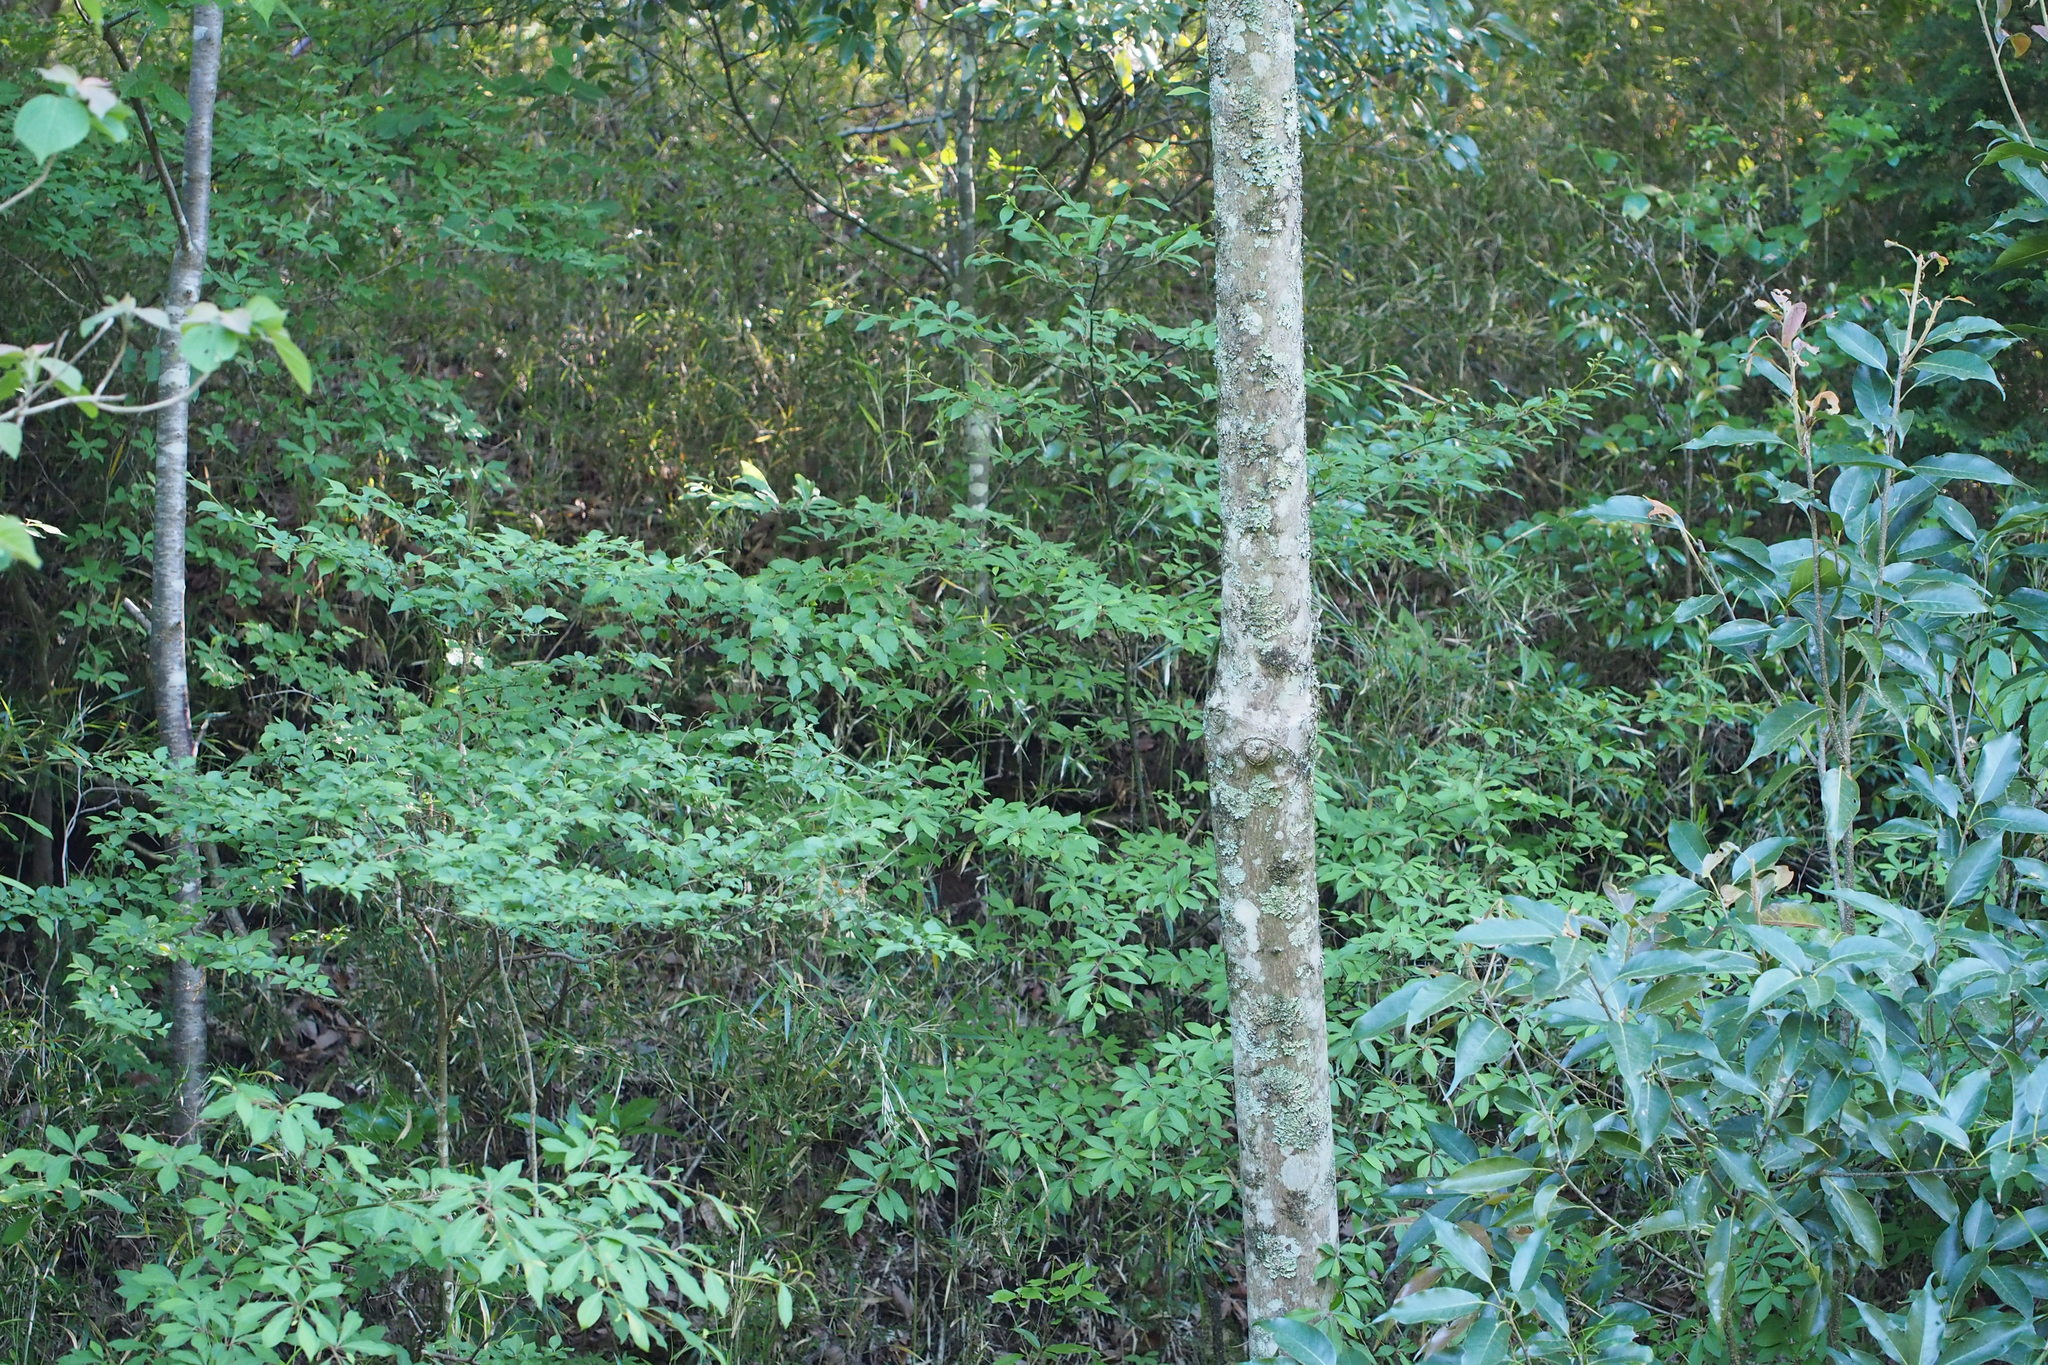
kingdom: Plantae
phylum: Tracheophyta
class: Magnoliopsida
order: Cornales
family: Cornaceae
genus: Cornus
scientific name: Cornus controversa
